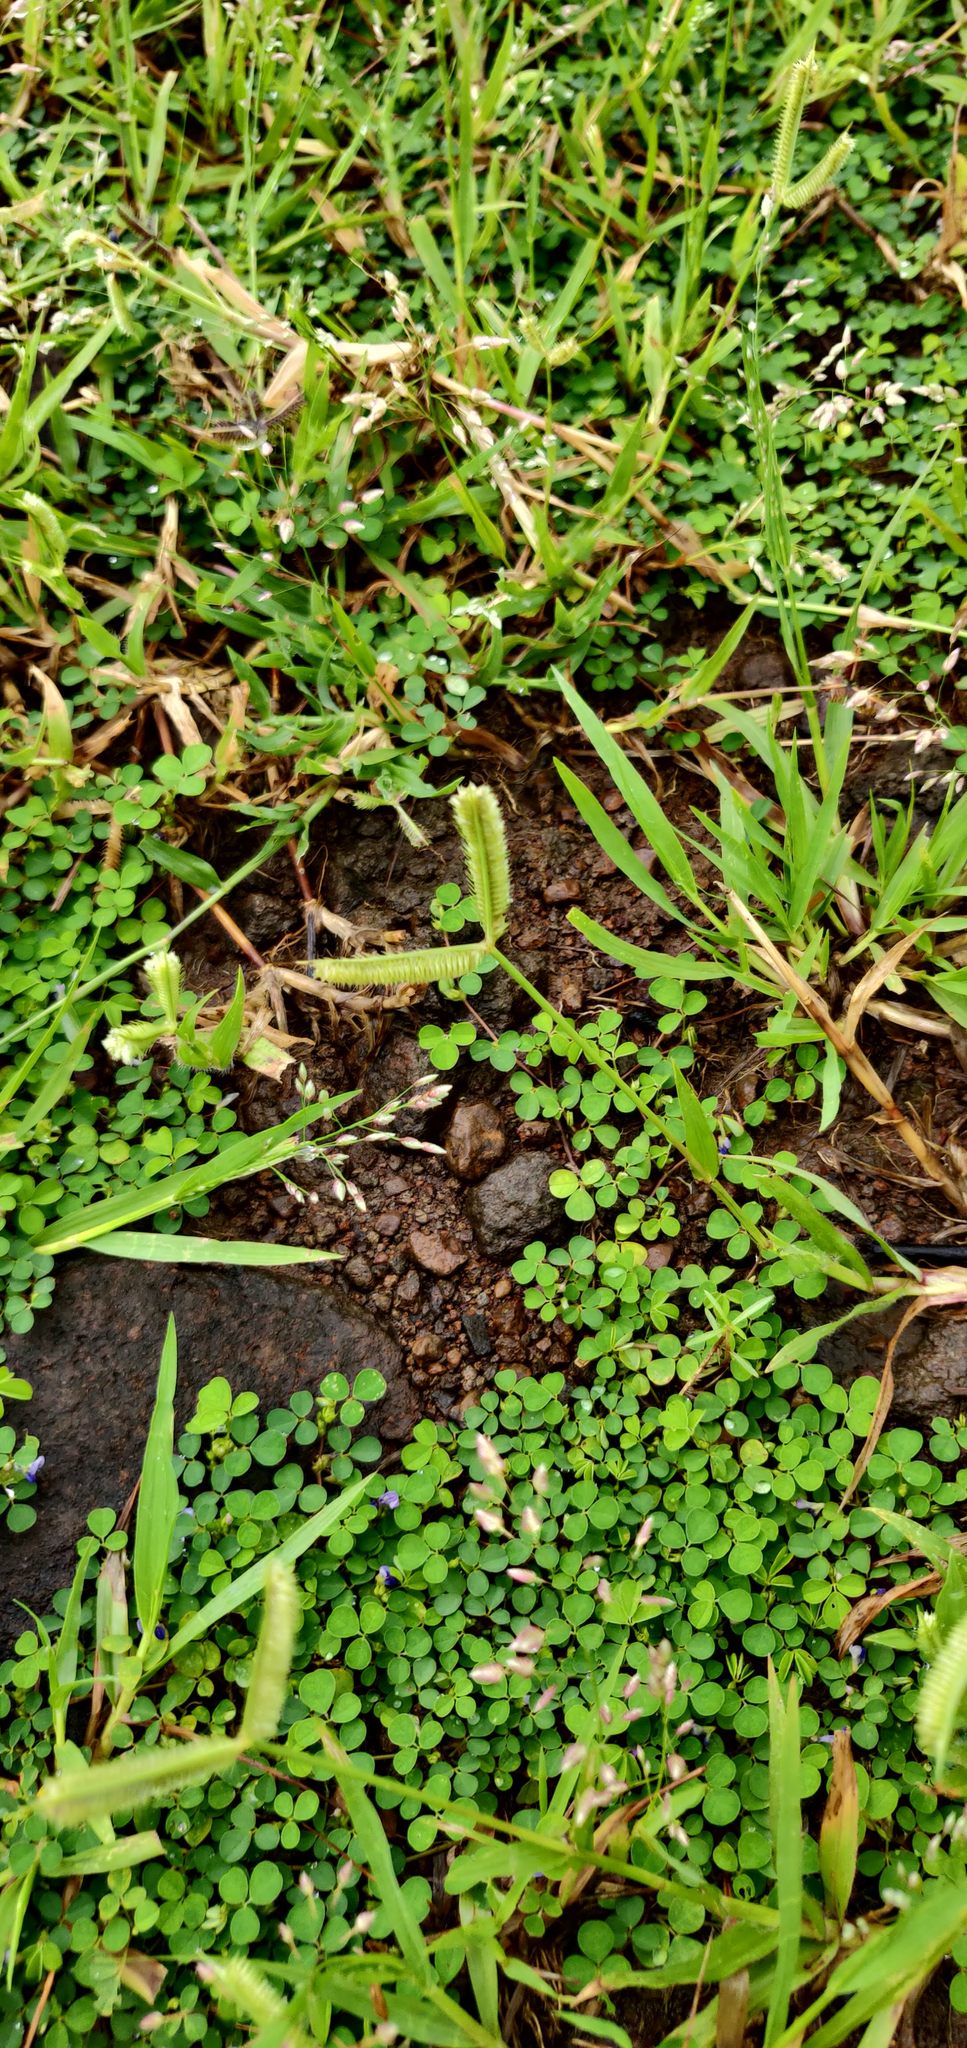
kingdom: Plantae
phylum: Tracheophyta
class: Liliopsida
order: Poales
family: Poaceae
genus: Dactyloctenium
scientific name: Dactyloctenium aegyptium
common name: Egyptian grass
